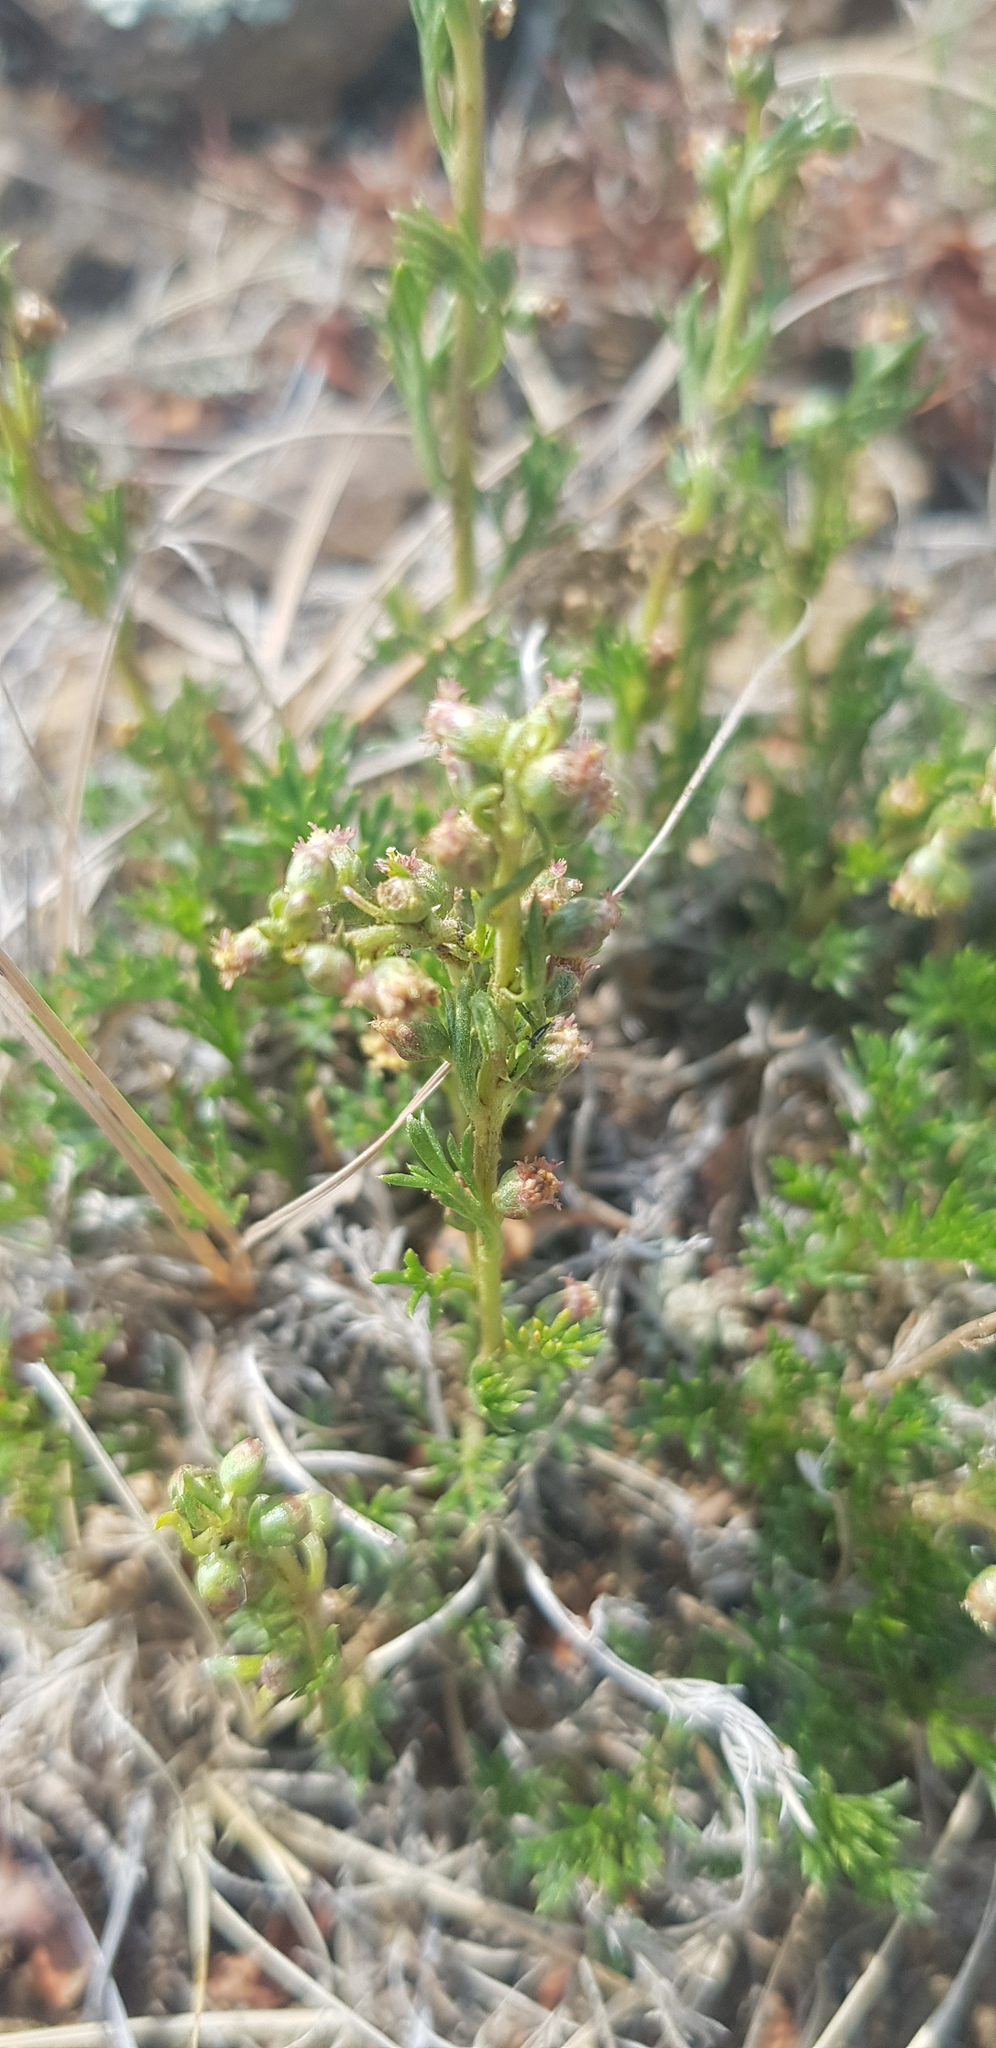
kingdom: Plantae
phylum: Tracheophyta
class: Magnoliopsida
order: Asterales
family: Asteraceae
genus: Artemisia
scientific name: Artemisia tanacetifolia
